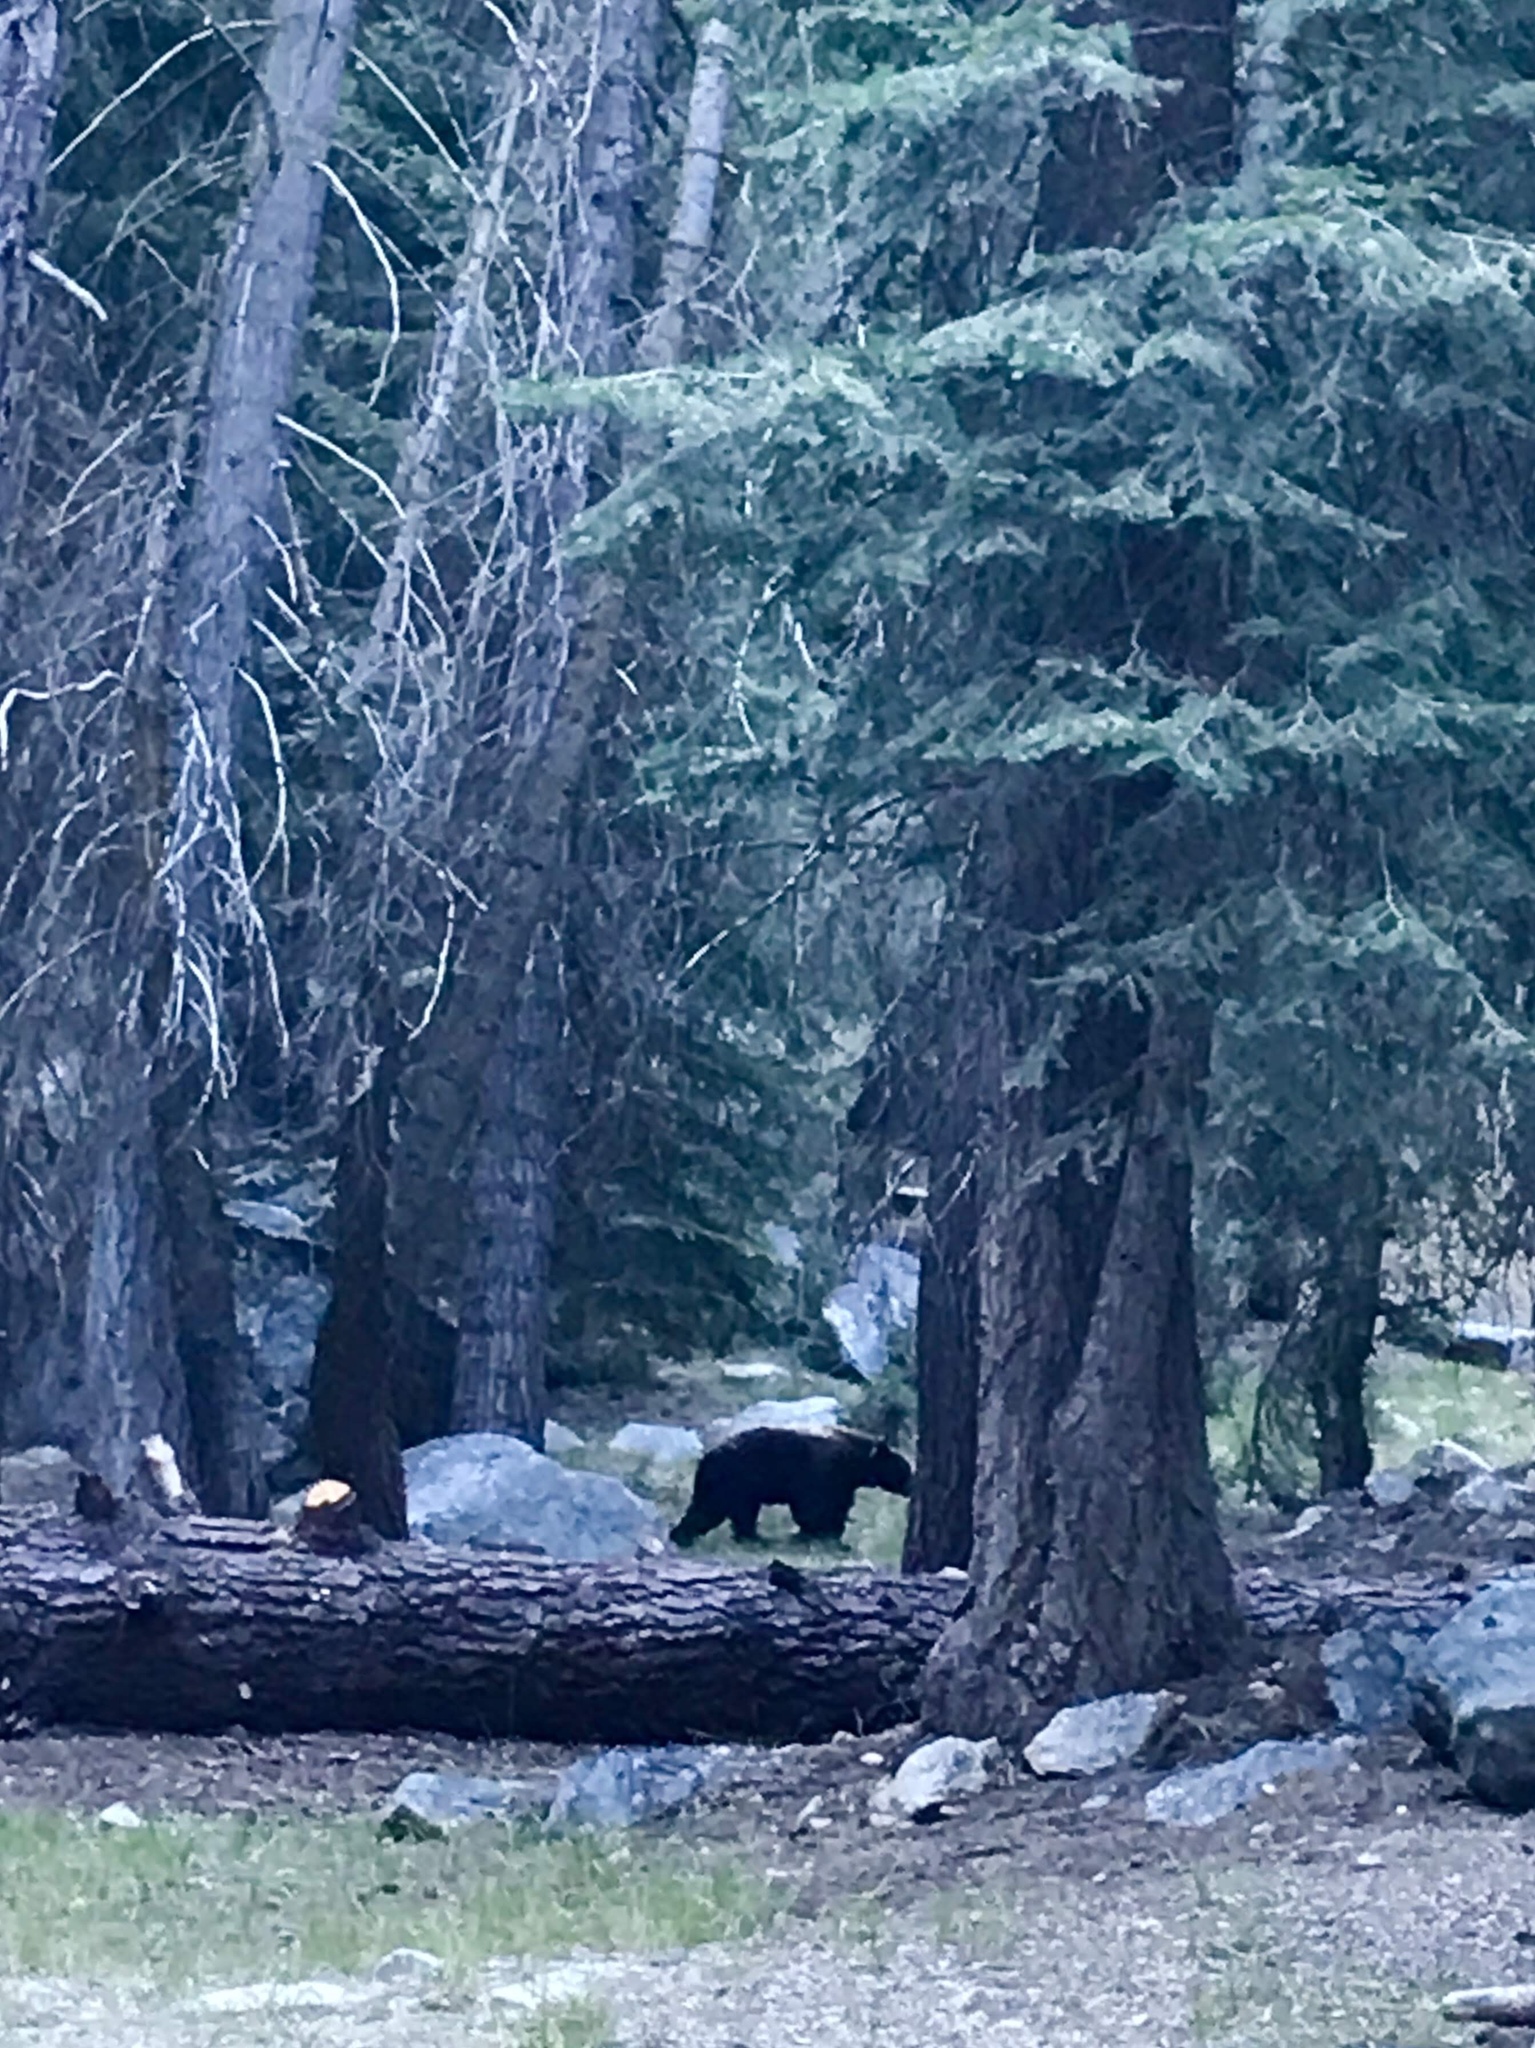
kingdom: Animalia
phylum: Chordata
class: Mammalia
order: Carnivora
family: Ursidae
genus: Ursus
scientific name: Ursus americanus
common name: American black bear
